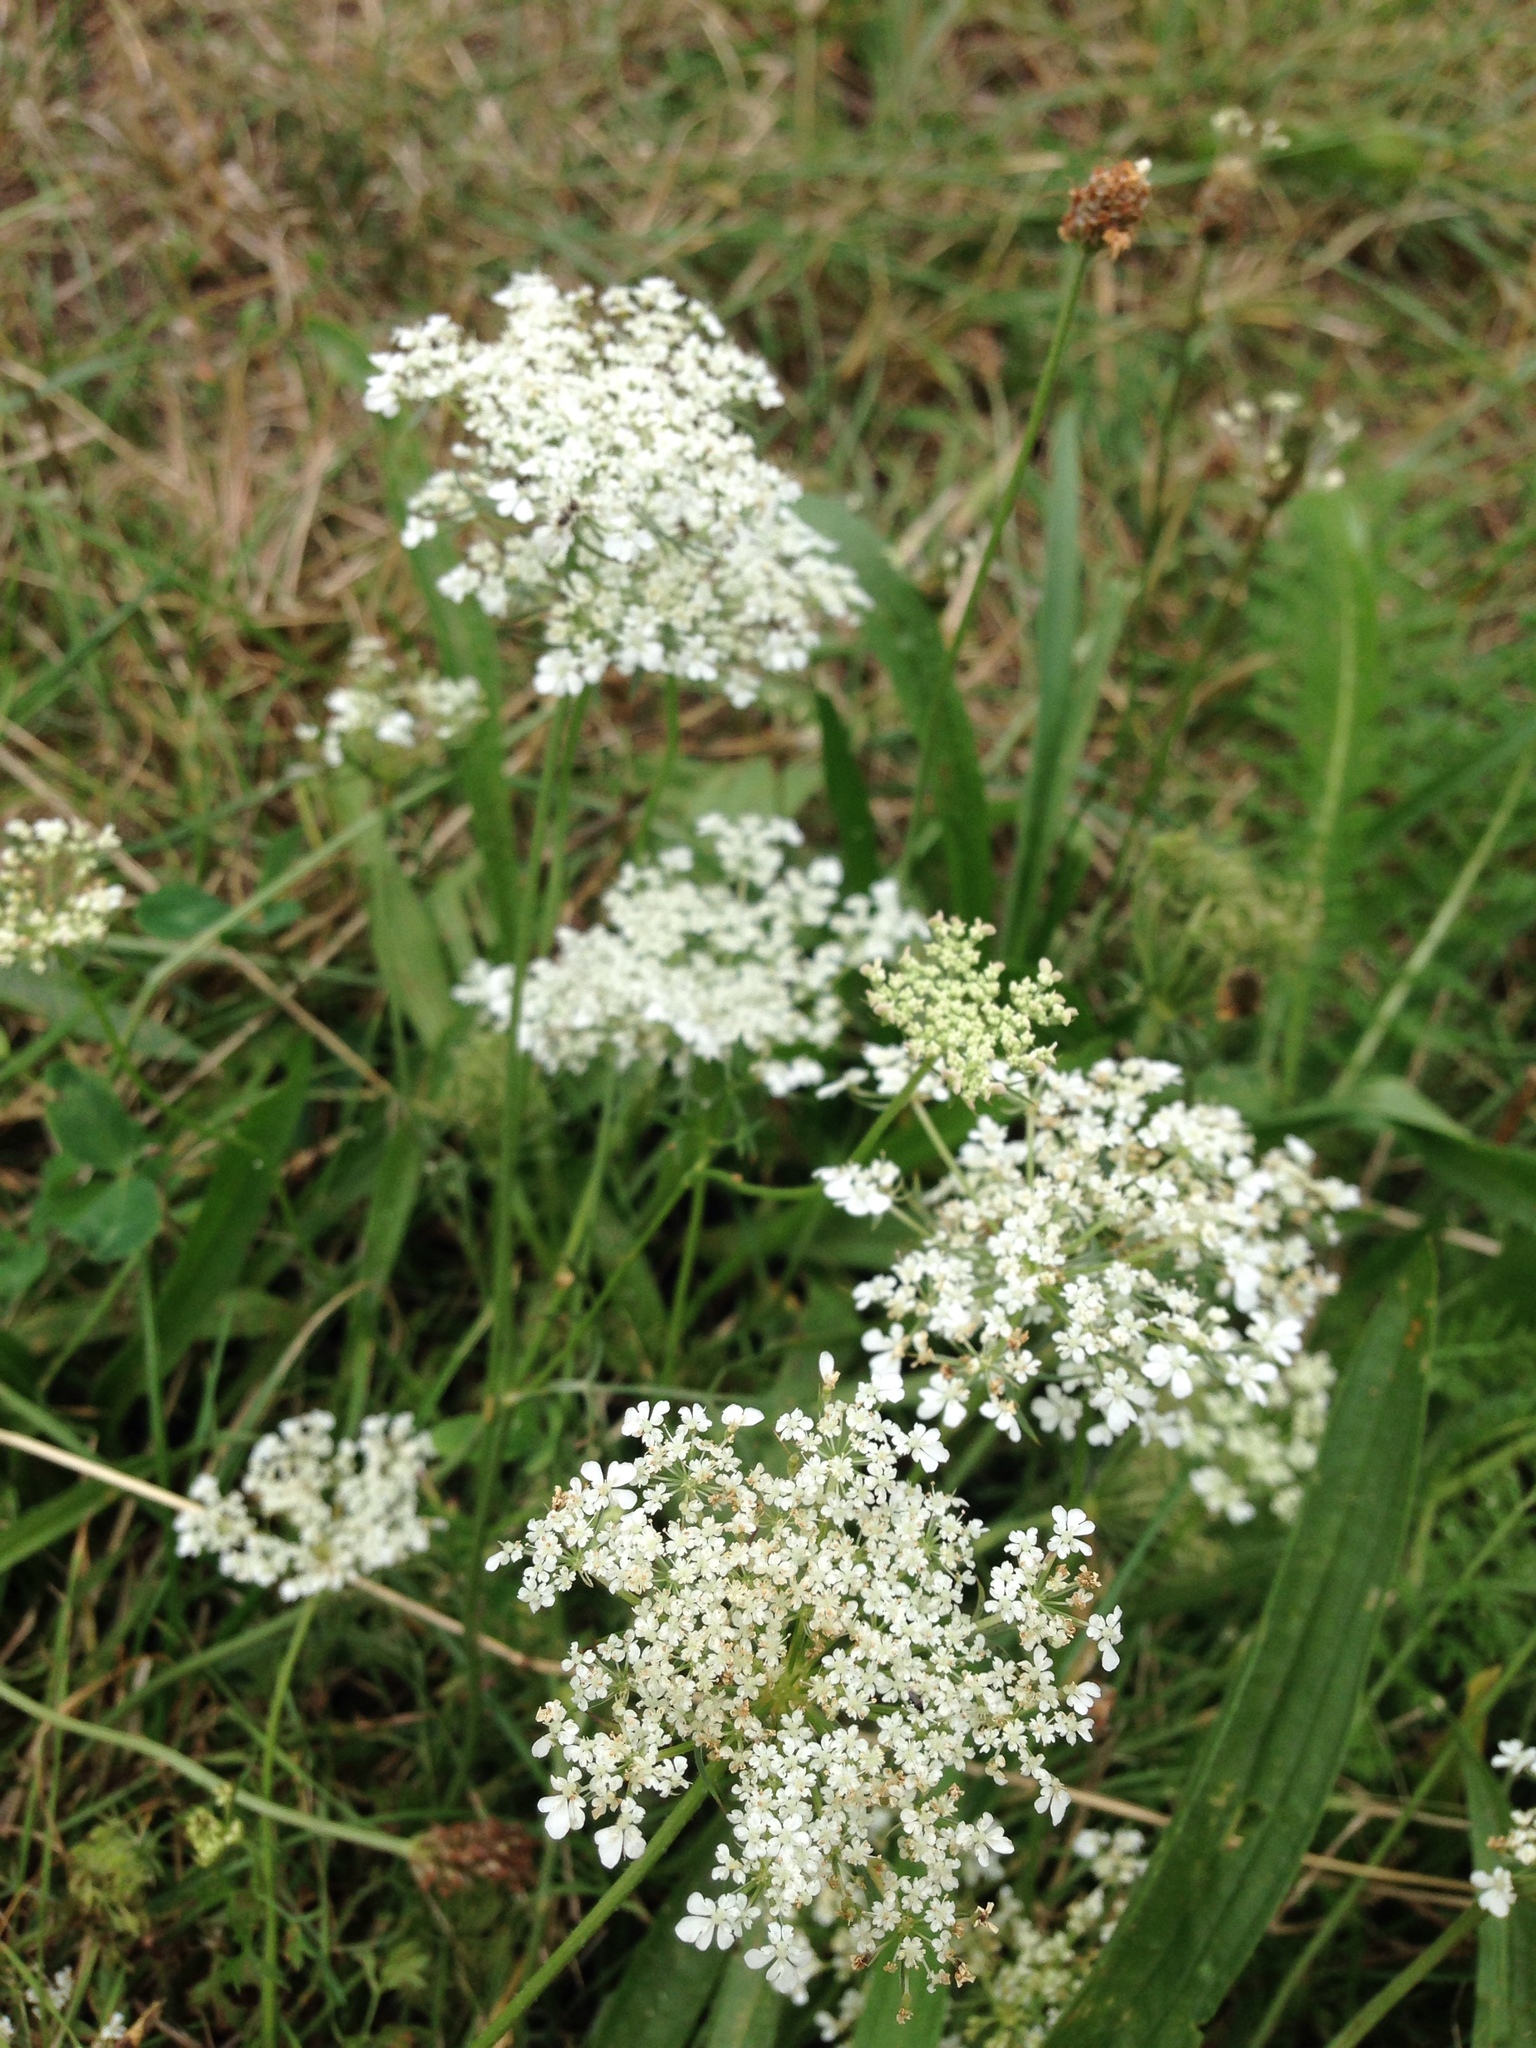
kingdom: Plantae
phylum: Tracheophyta
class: Magnoliopsida
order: Apiales
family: Apiaceae
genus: Daucus
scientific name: Daucus carota
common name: Wild carrot
